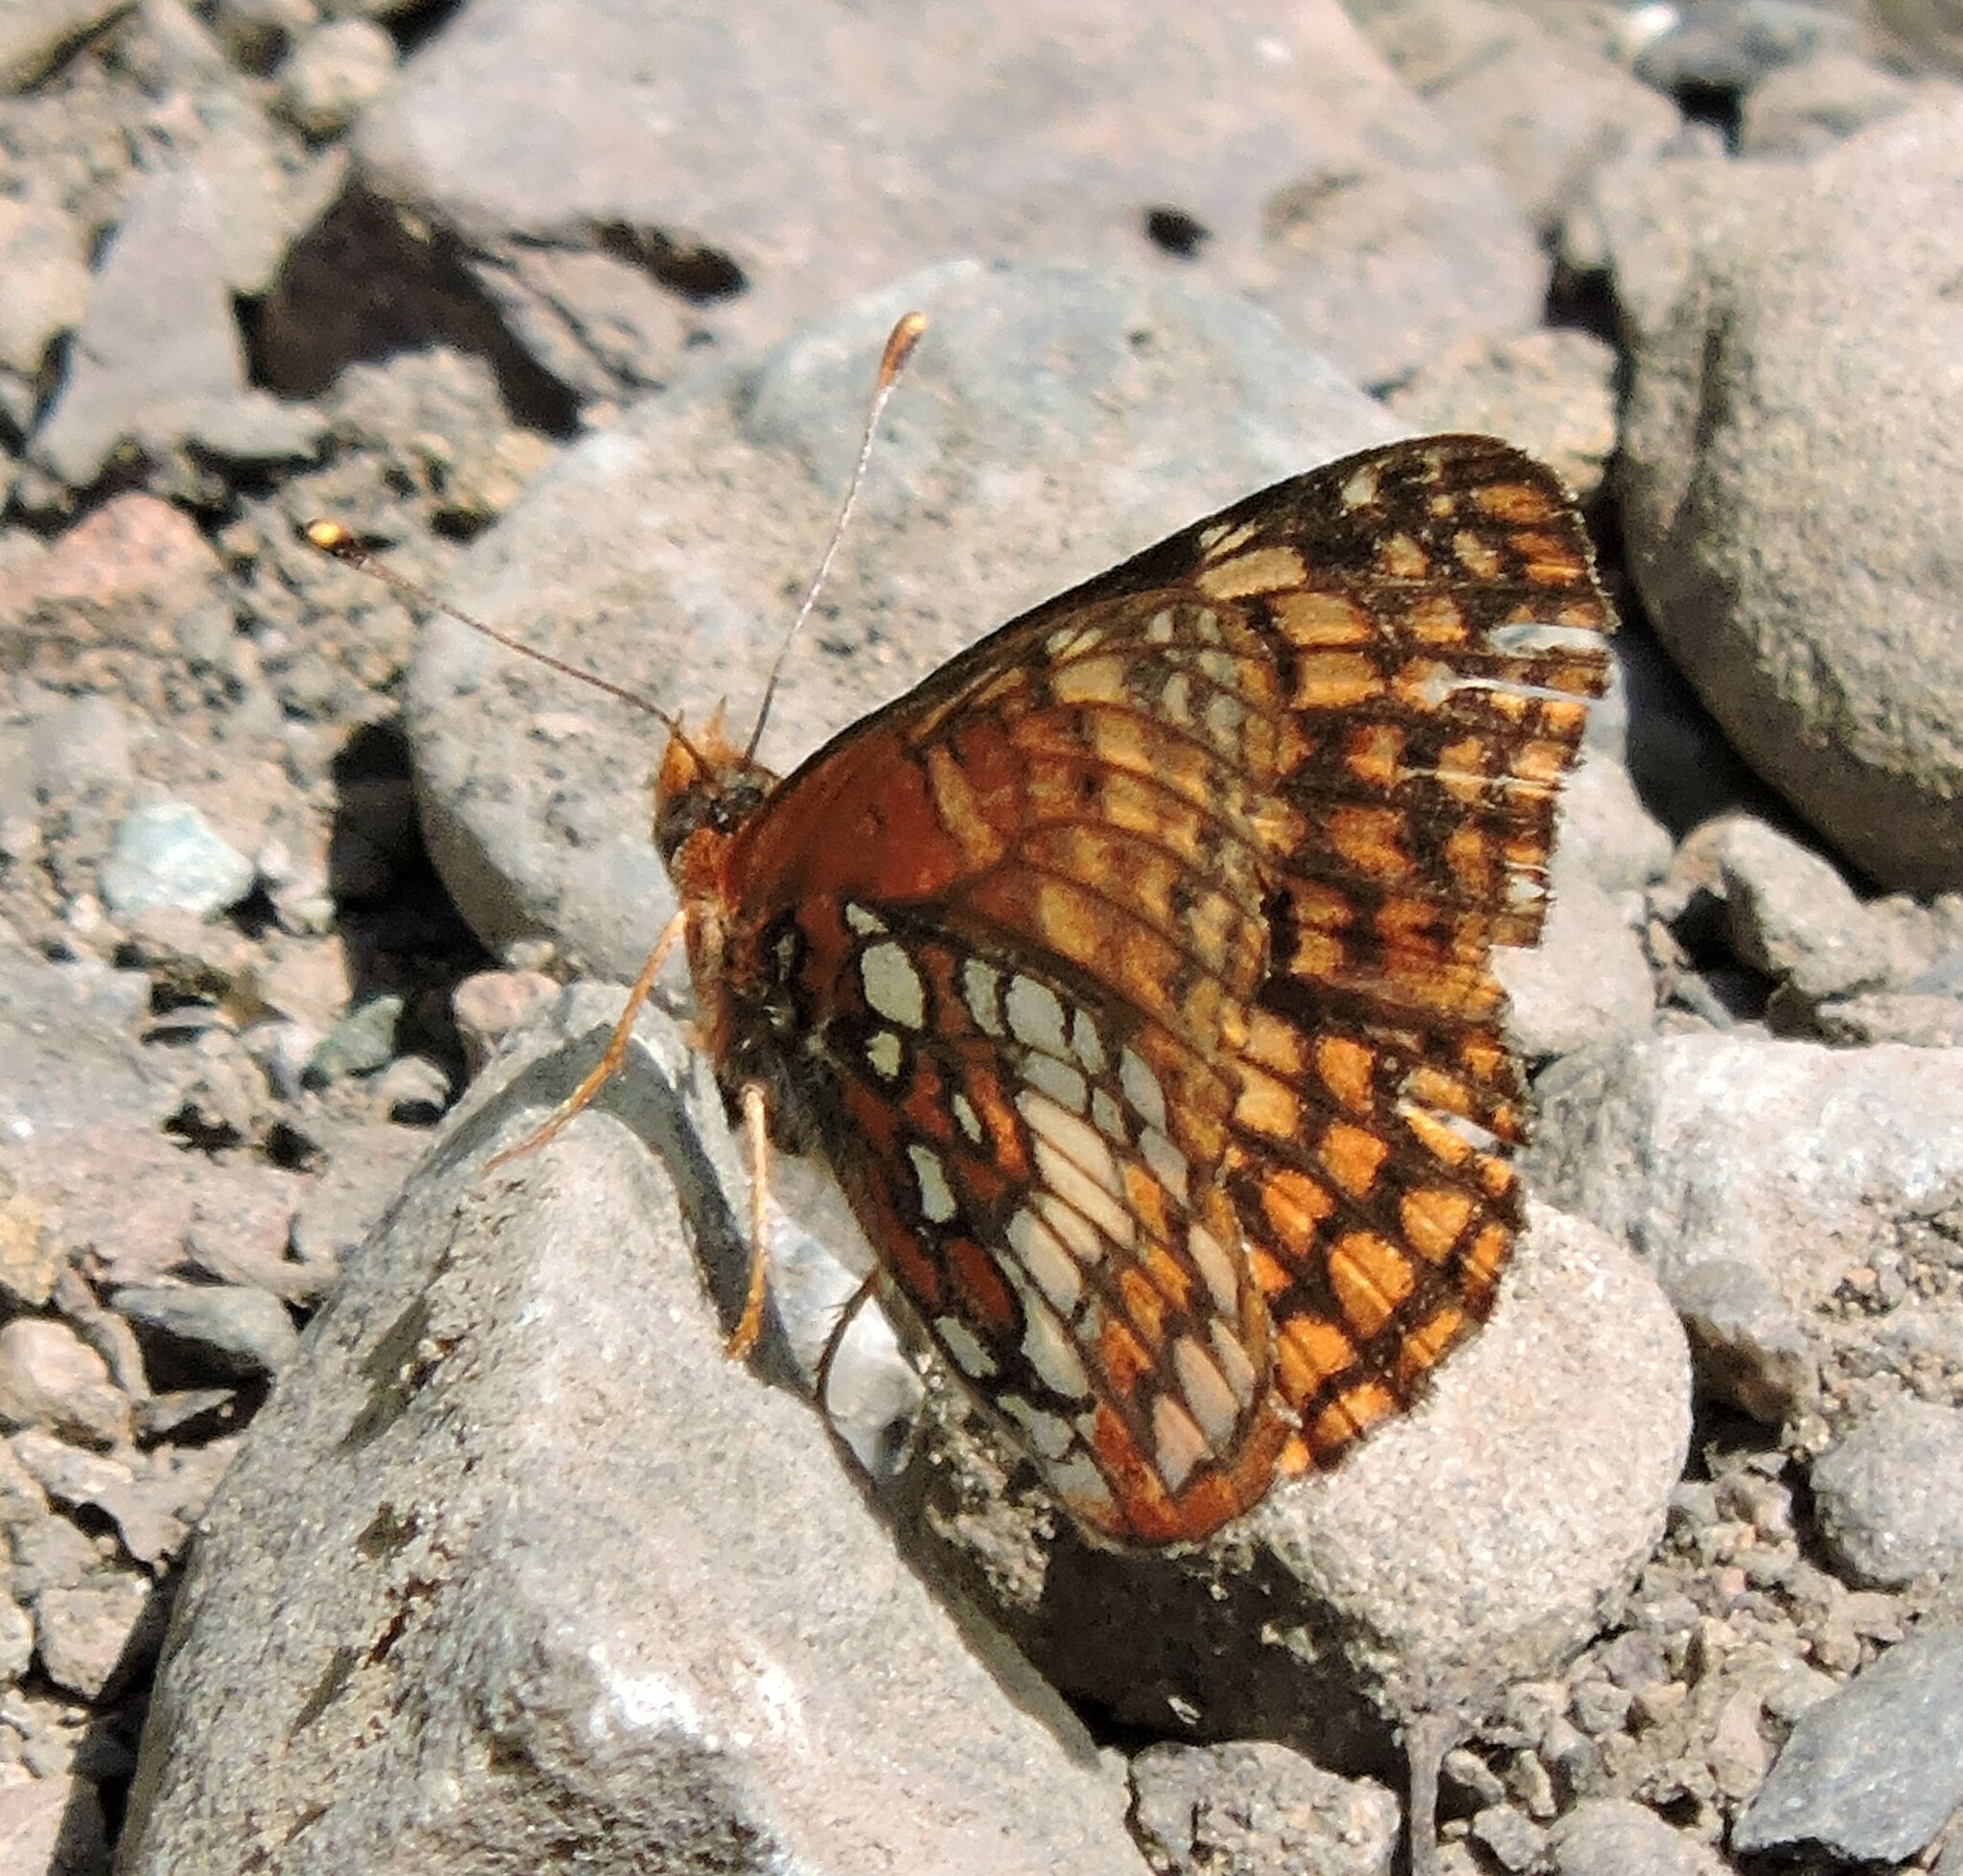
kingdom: Animalia
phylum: Arthropoda
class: Insecta
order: Lepidoptera
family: Nymphalidae
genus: Chlosyne
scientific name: Chlosyne palla
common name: Northern checkerspot
